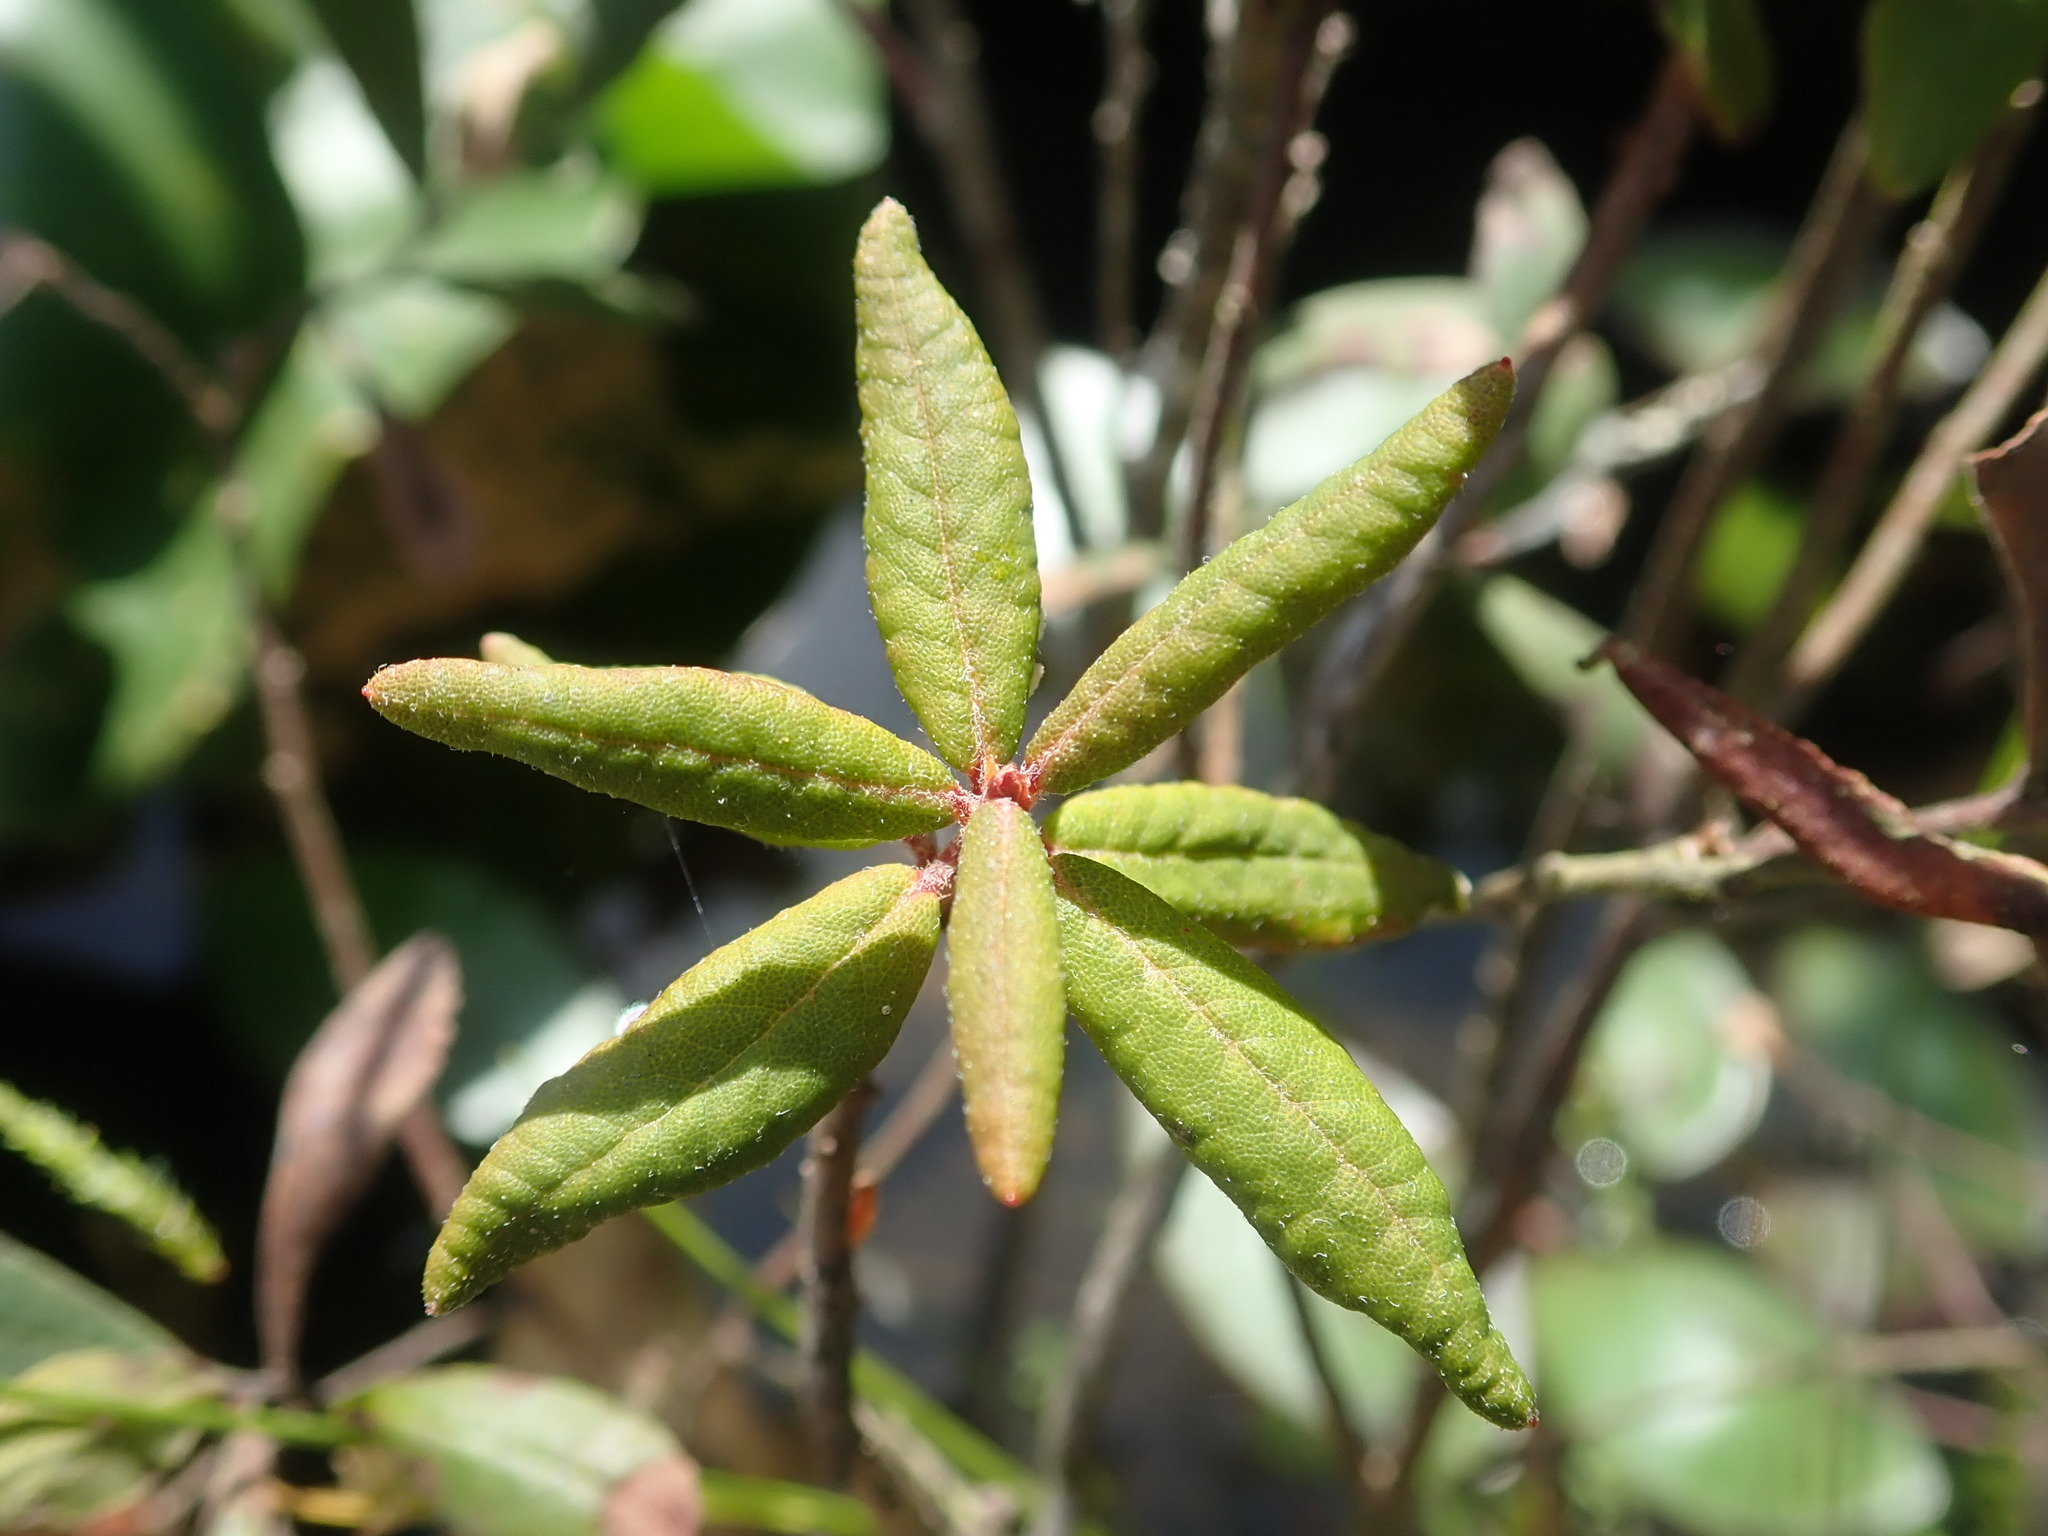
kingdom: Plantae
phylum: Tracheophyta
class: Magnoliopsida
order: Ericales
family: Ericaceae
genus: Rhododendron
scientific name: Rhododendron groenlandicum
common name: Bog labrador tea
